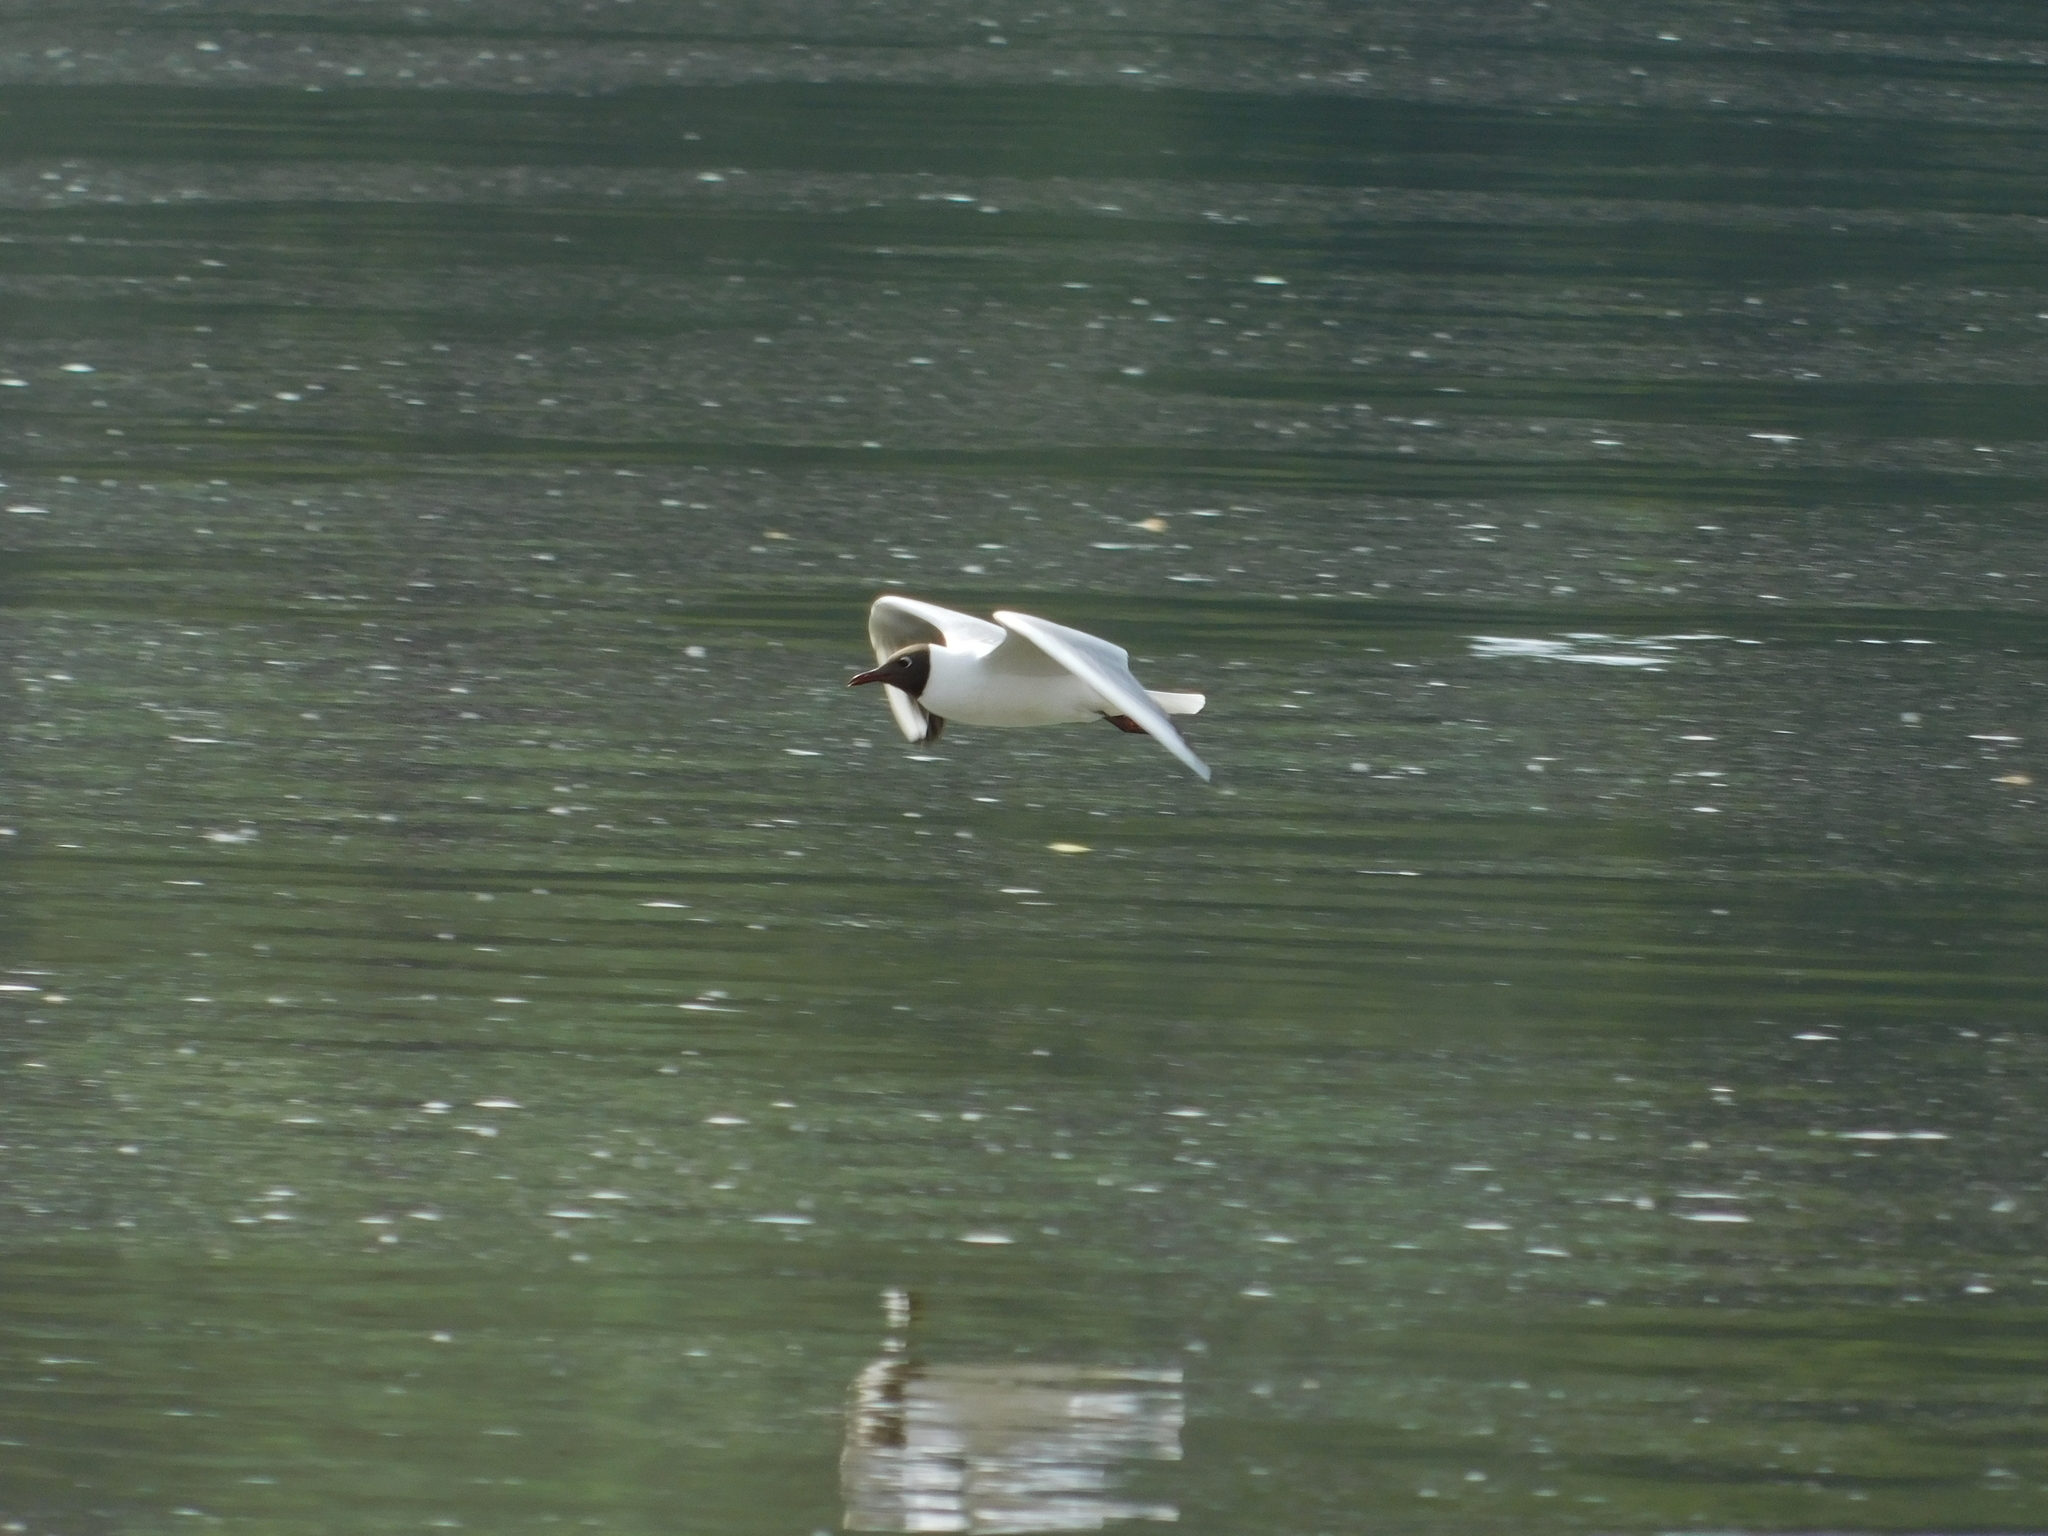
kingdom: Animalia
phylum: Chordata
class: Aves
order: Charadriiformes
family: Laridae
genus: Chroicocephalus
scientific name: Chroicocephalus ridibundus
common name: Black-headed gull
